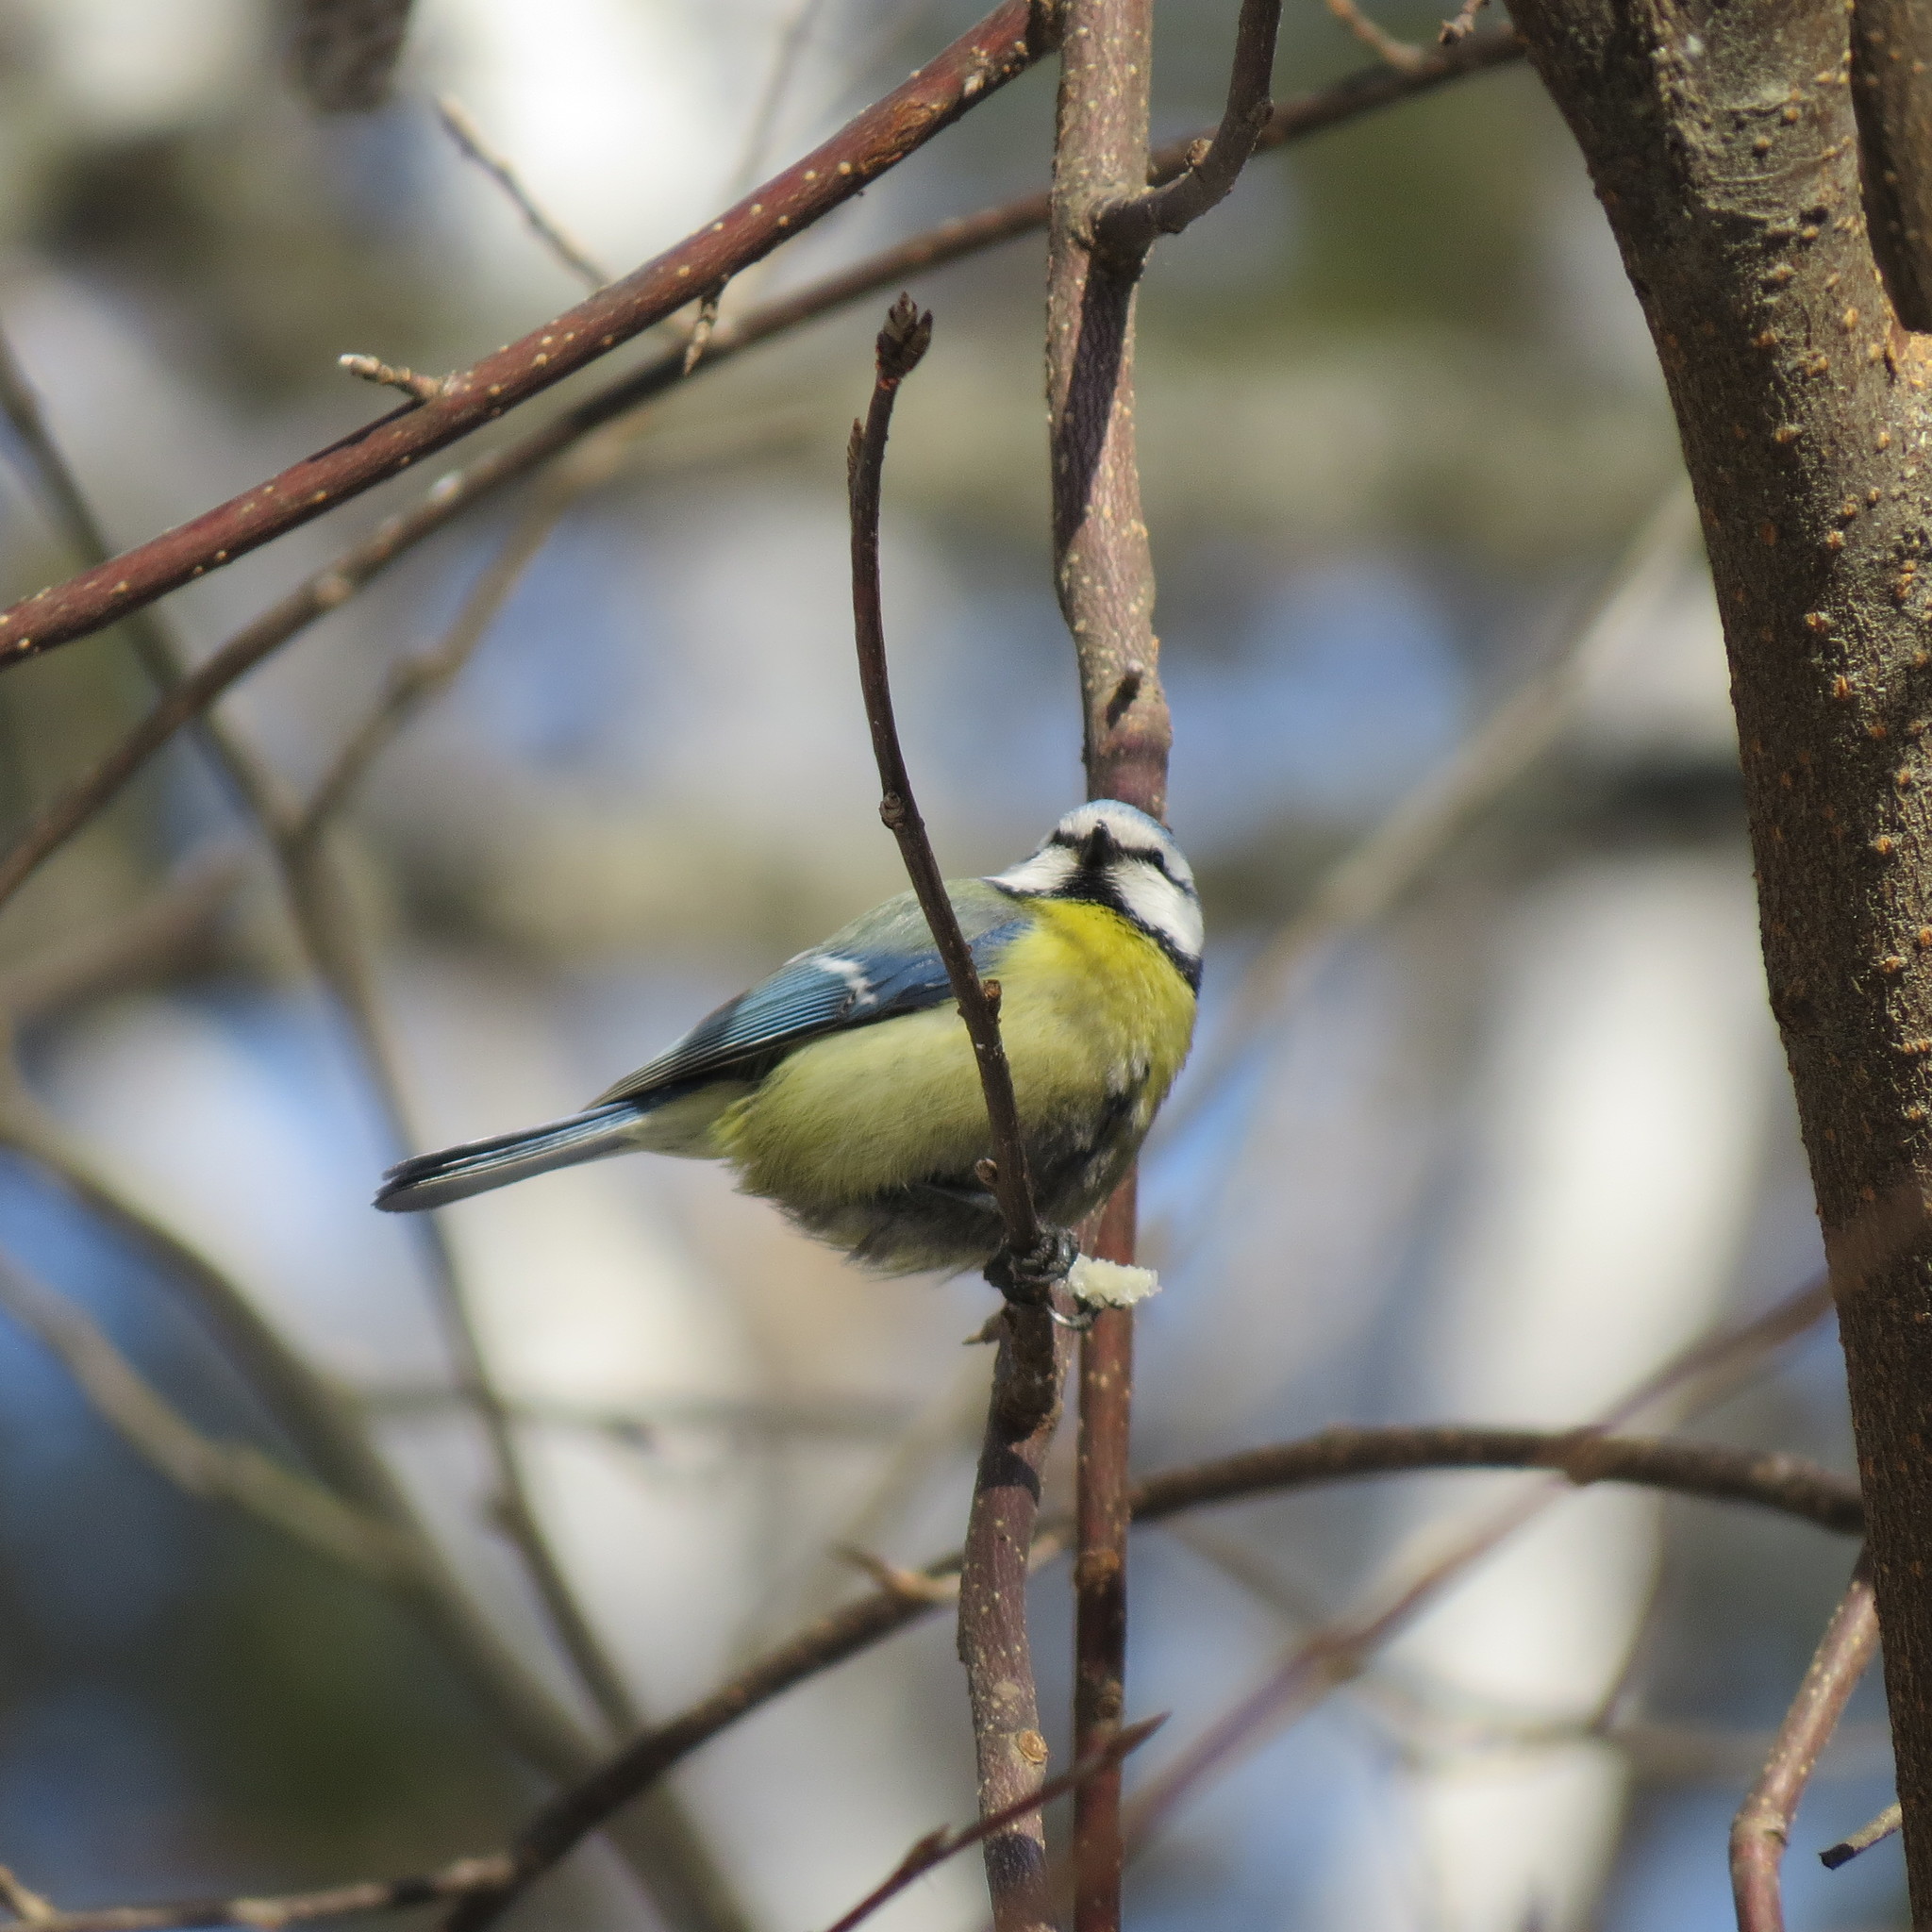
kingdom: Animalia
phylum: Chordata
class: Aves
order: Passeriformes
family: Paridae
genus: Cyanistes
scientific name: Cyanistes caeruleus
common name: Eurasian blue tit
